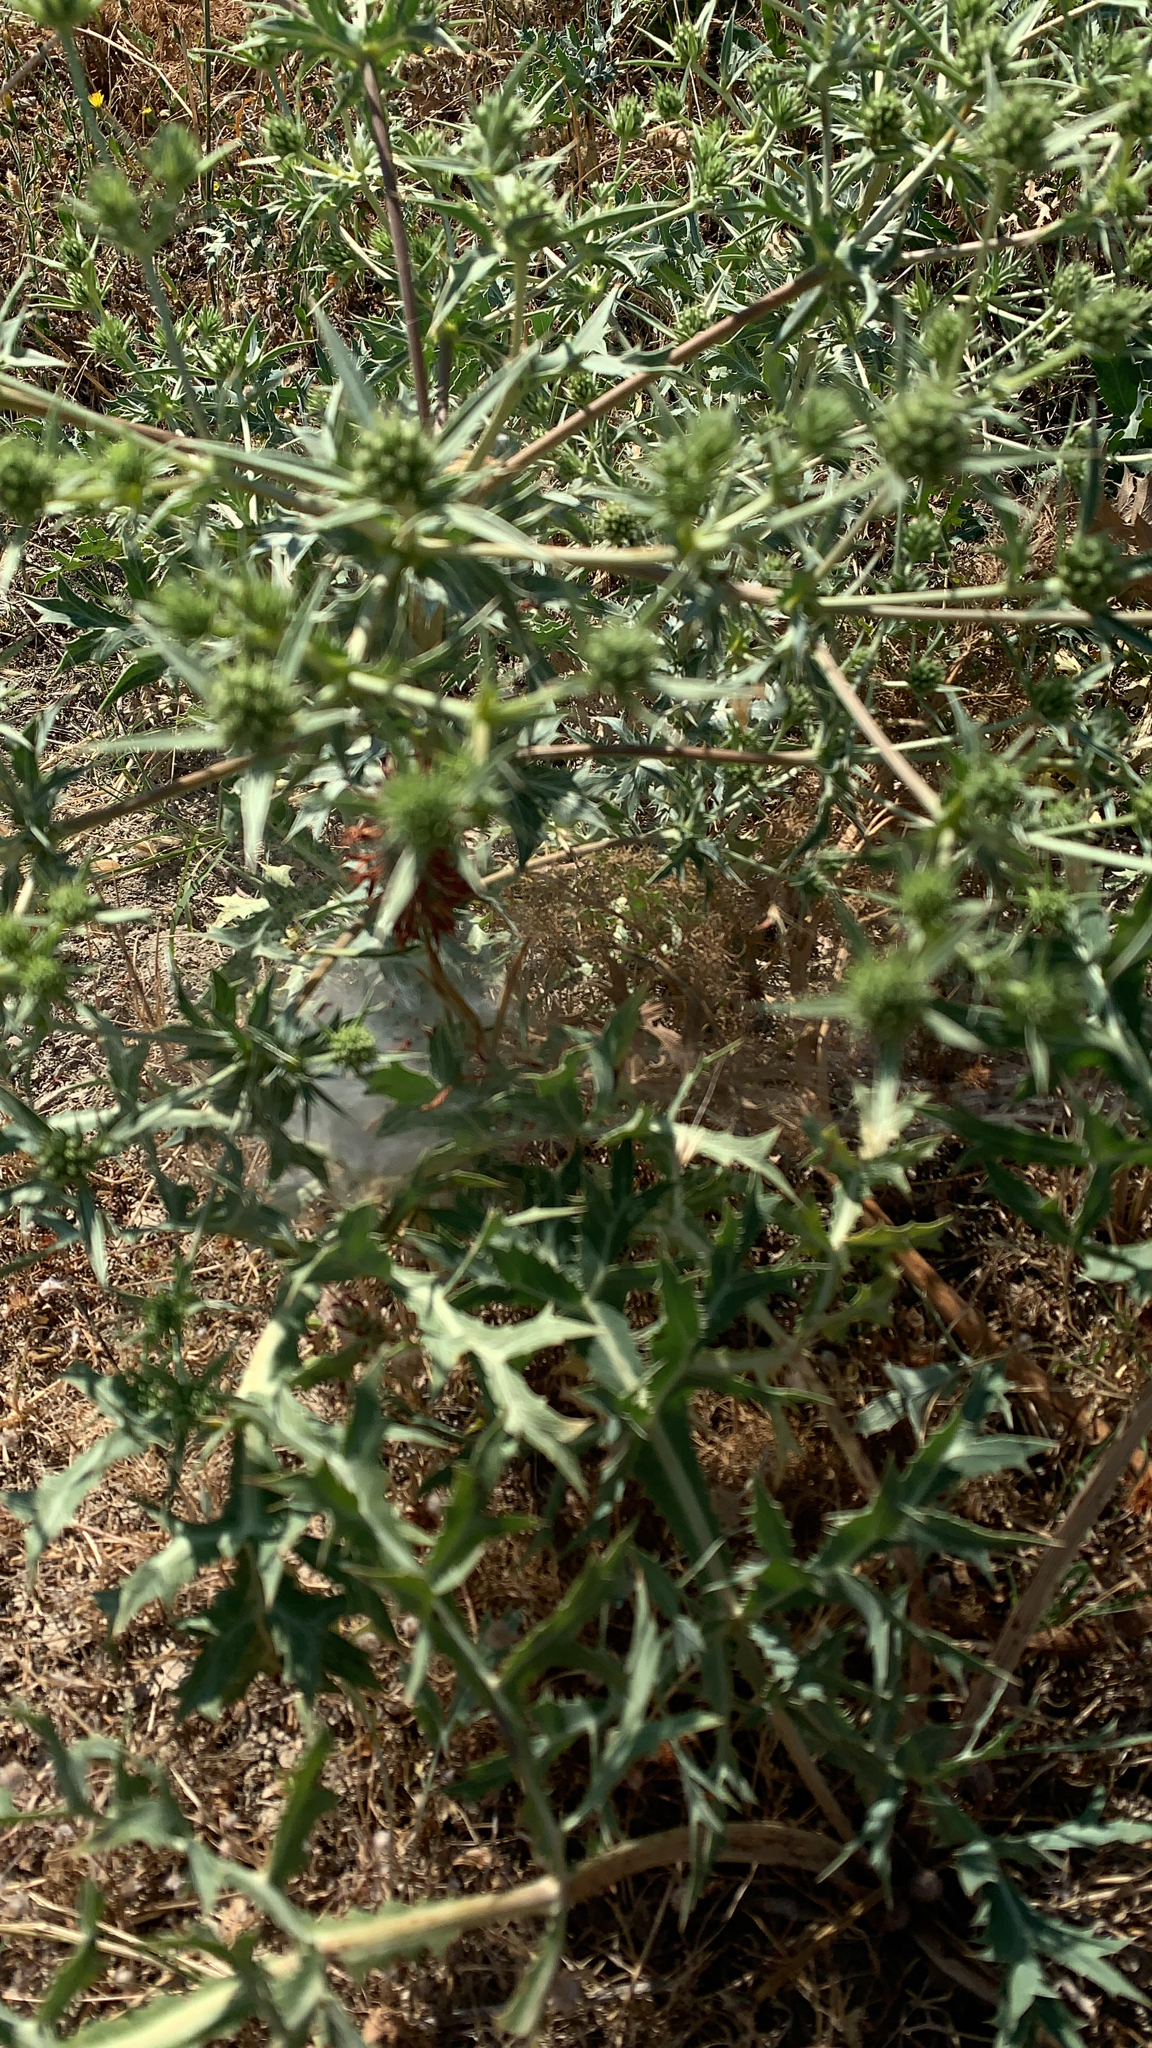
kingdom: Plantae
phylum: Tracheophyta
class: Magnoliopsida
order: Apiales
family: Apiaceae
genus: Eryngium
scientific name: Eryngium campestre
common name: Field eryngo
